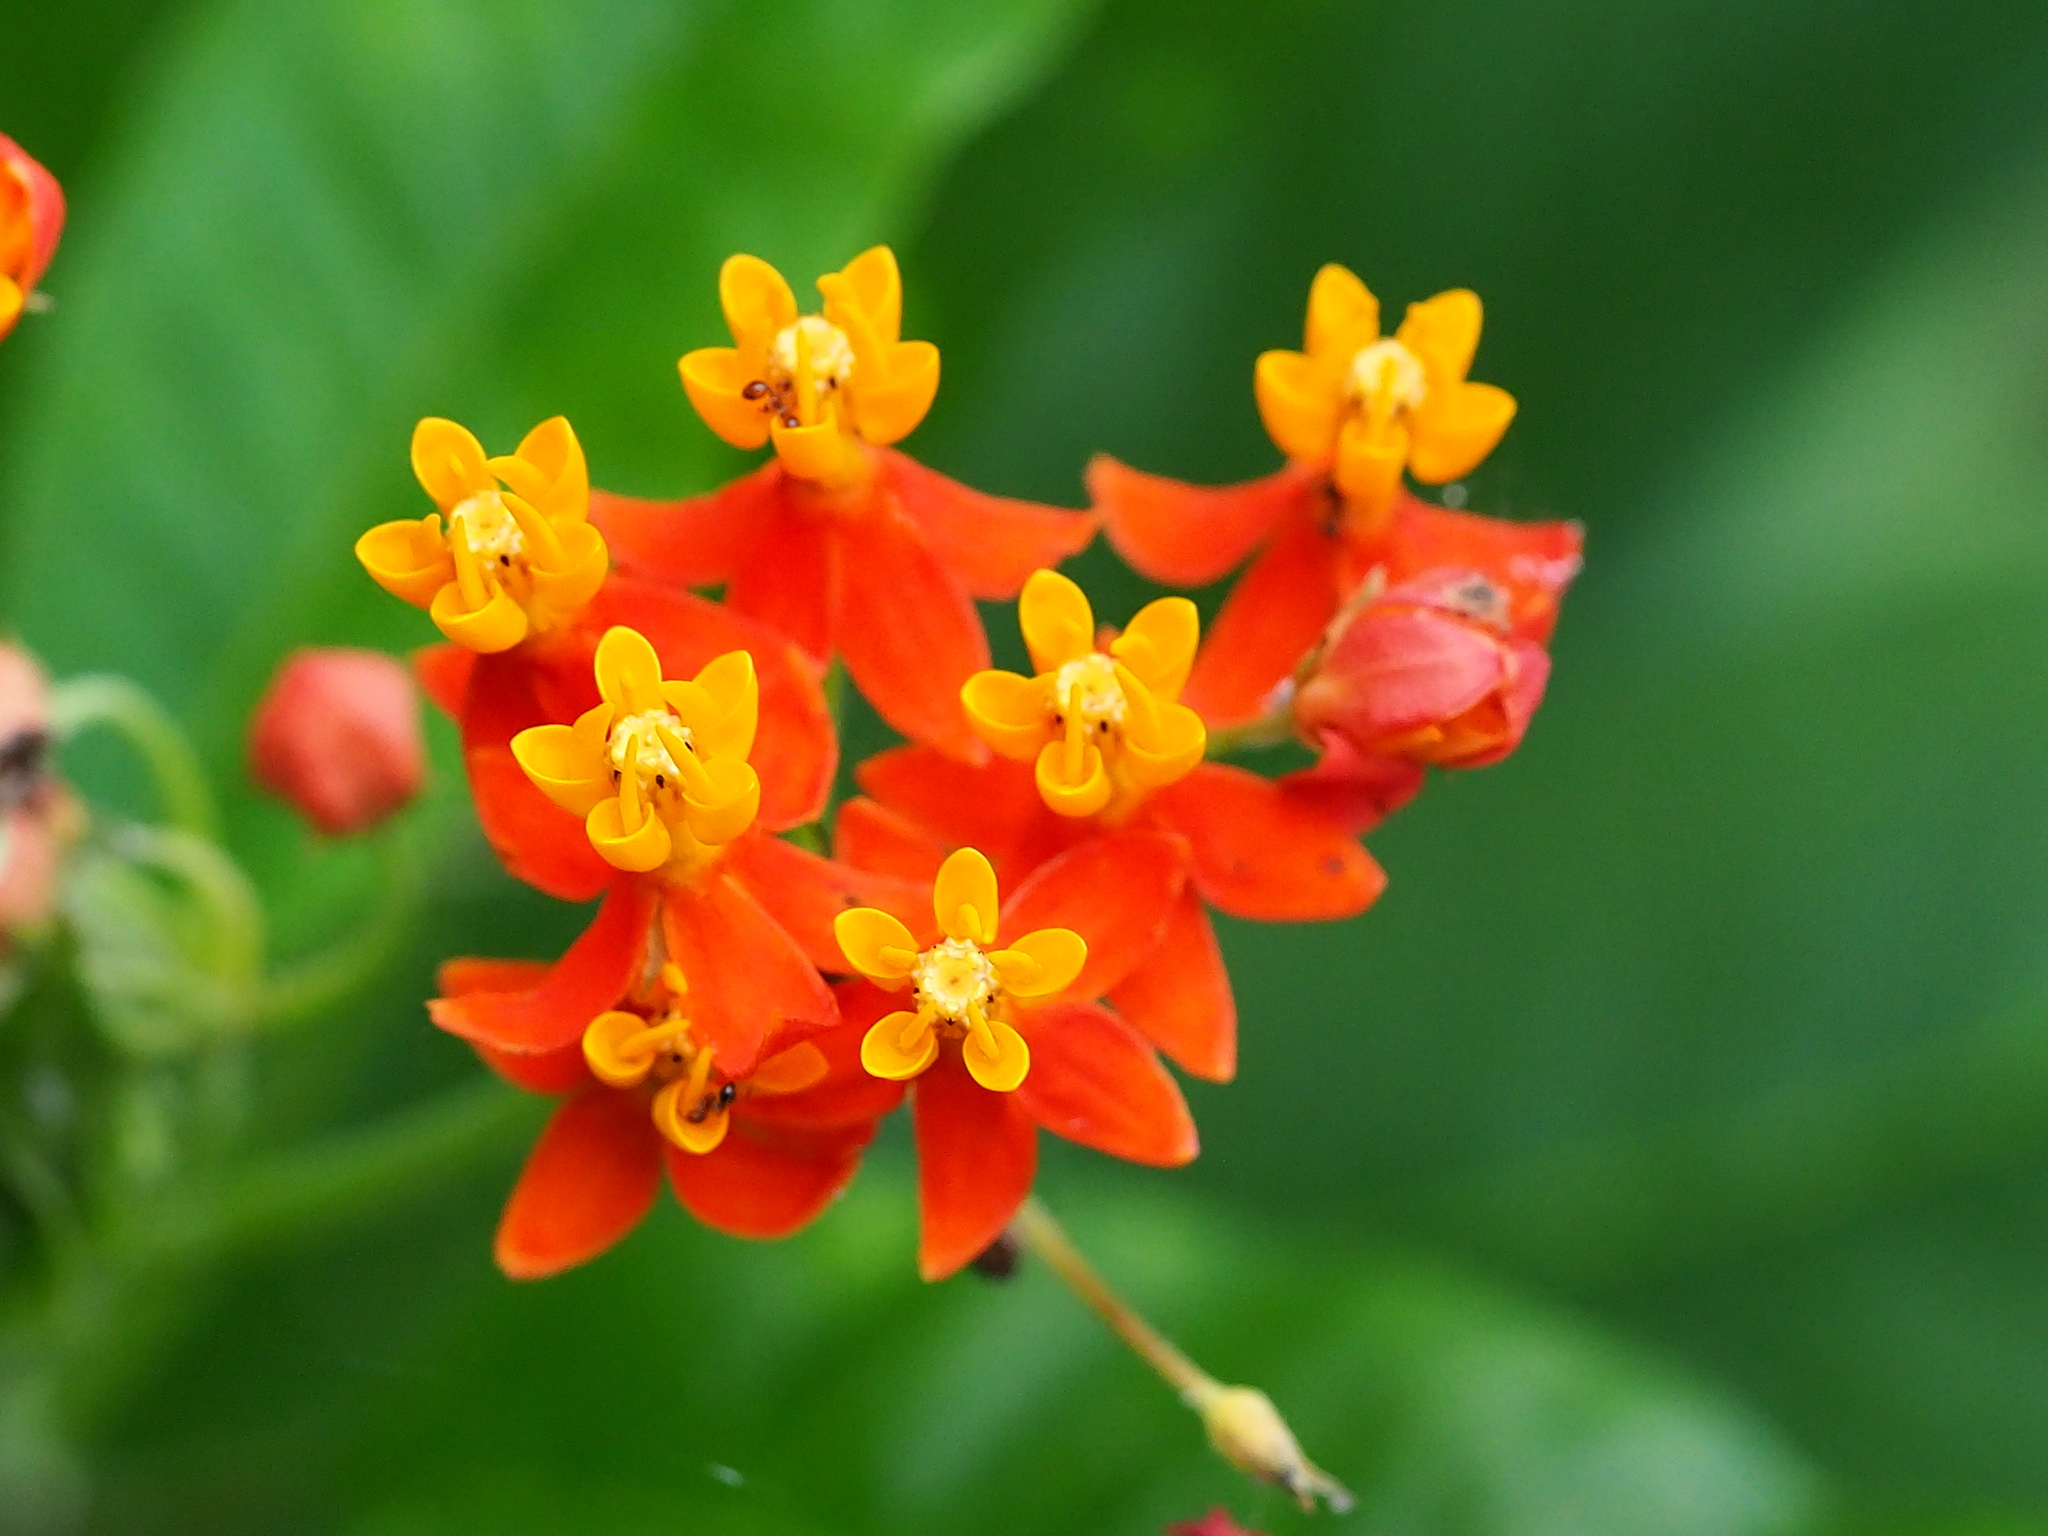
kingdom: Plantae
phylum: Tracheophyta
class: Magnoliopsida
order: Gentianales
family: Apocynaceae
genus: Asclepias
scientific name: Asclepias curassavica
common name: Bloodflower
